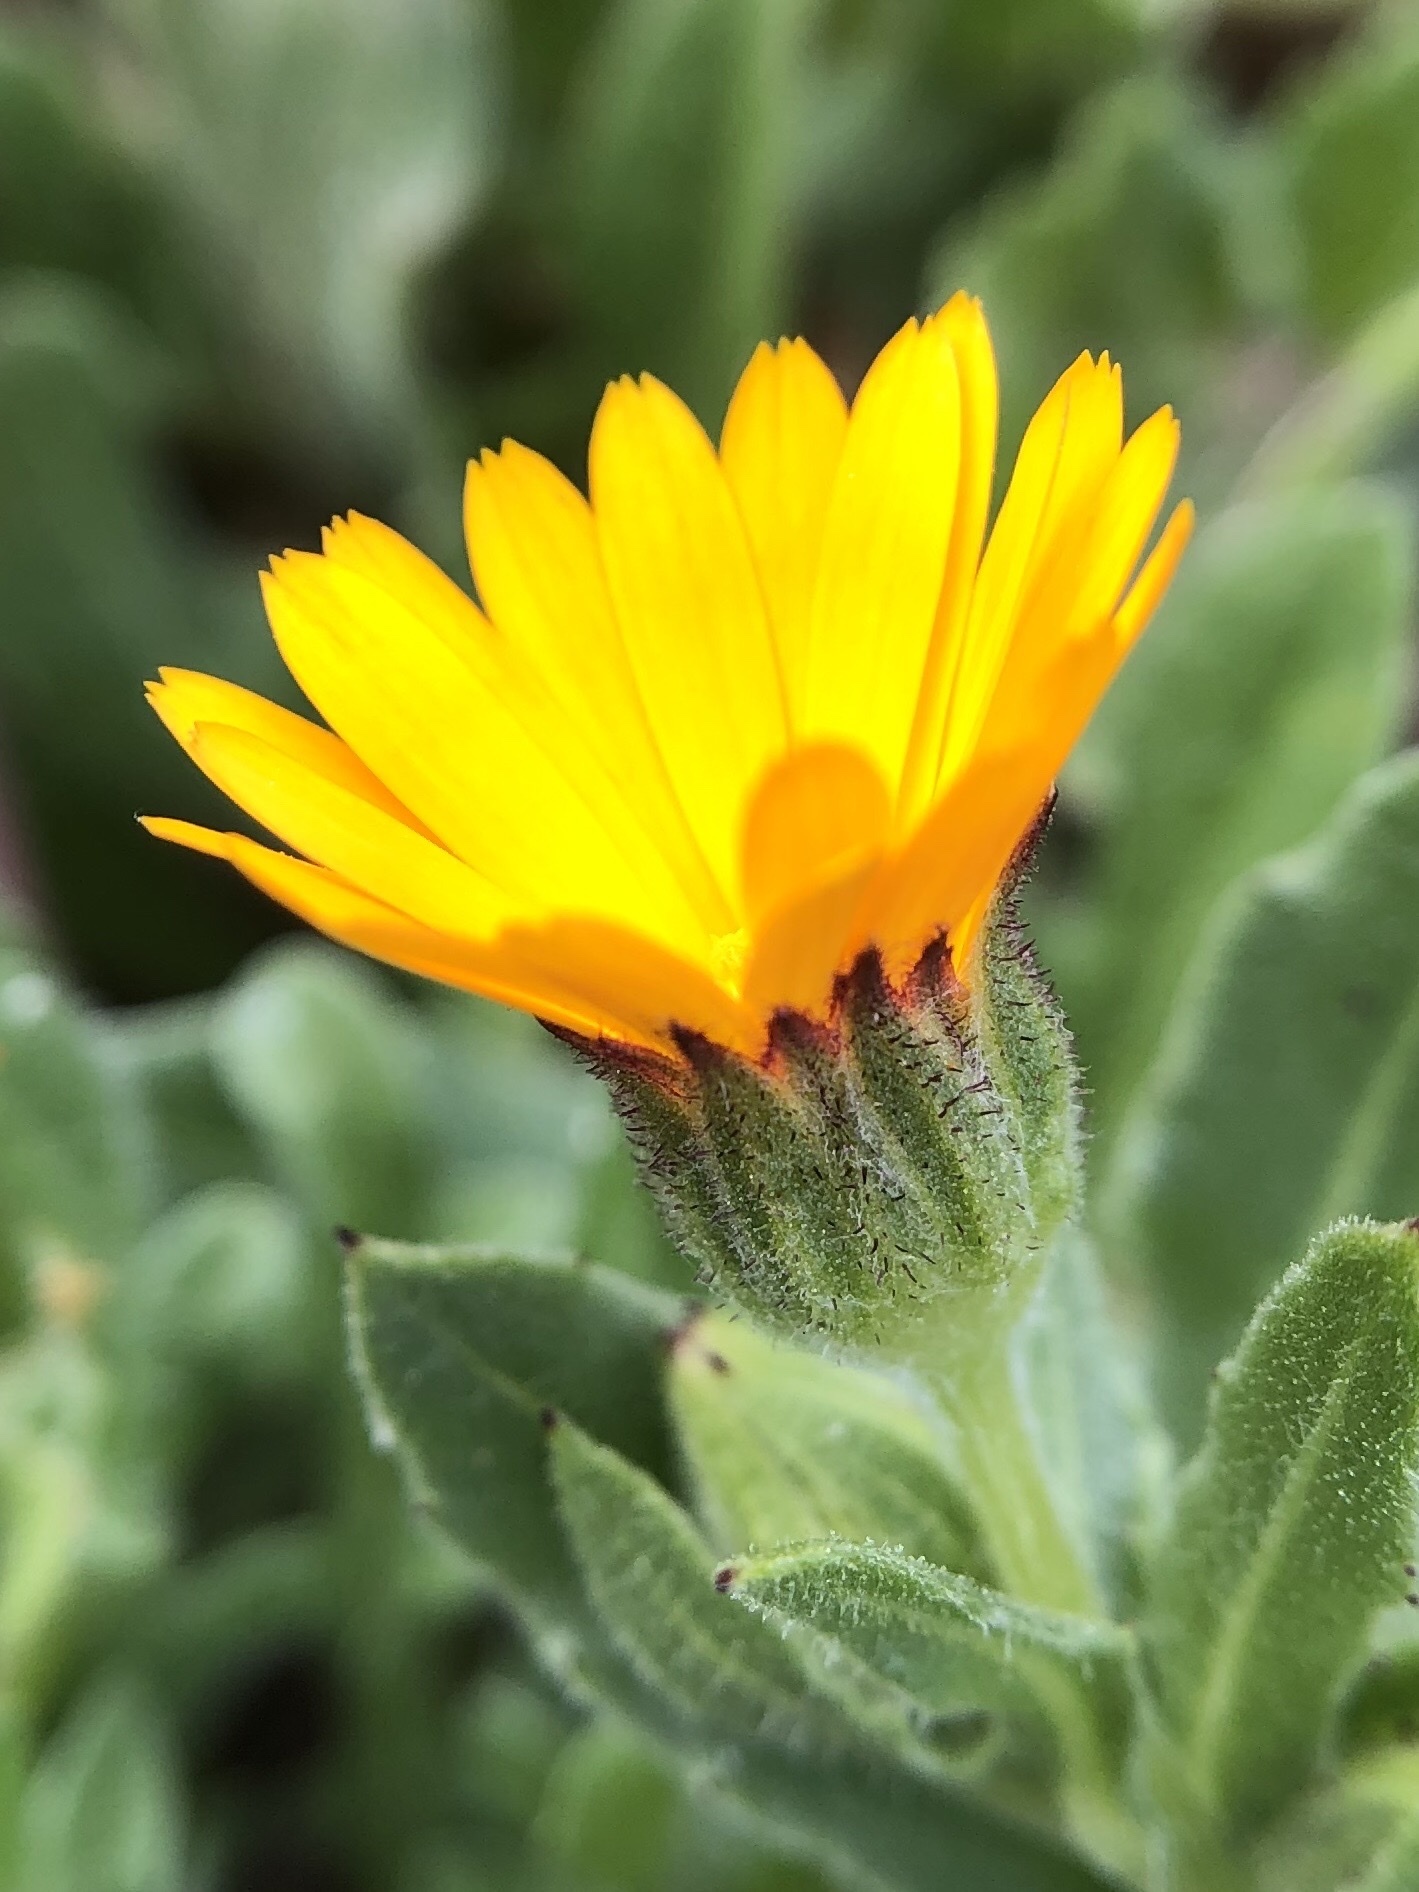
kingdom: Plantae
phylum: Tracheophyta
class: Magnoliopsida
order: Asterales
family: Asteraceae
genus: Calendula
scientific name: Calendula arvensis
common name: Field marigold
